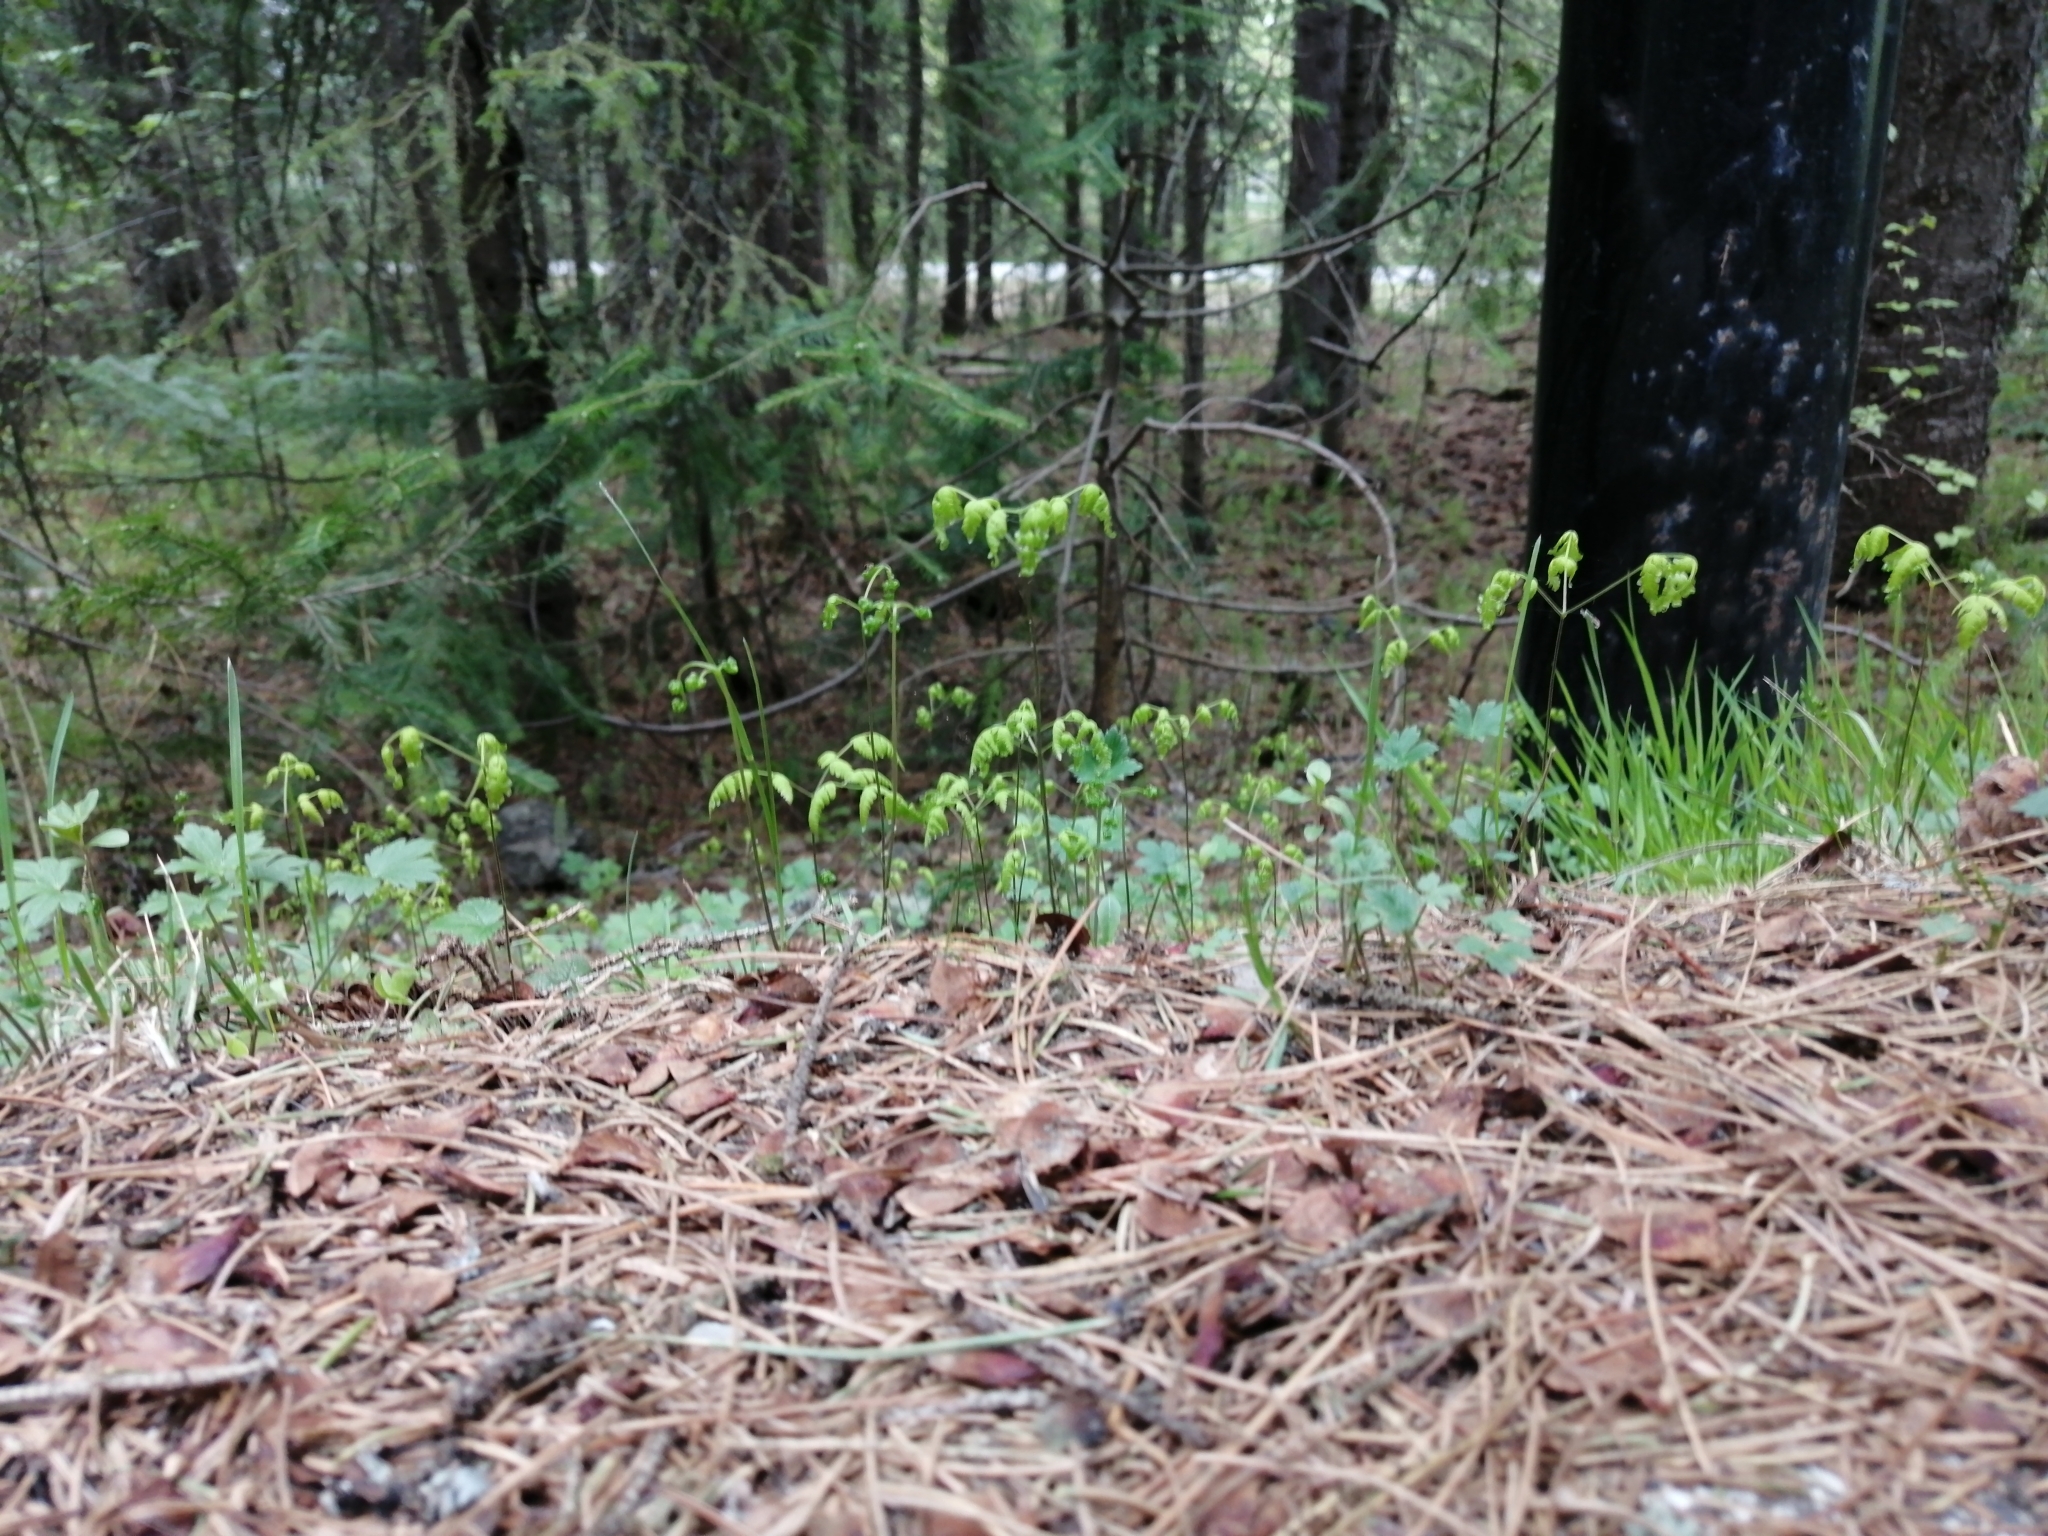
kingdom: Plantae
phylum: Tracheophyta
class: Polypodiopsida
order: Polypodiales
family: Cystopteridaceae
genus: Gymnocarpium
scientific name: Gymnocarpium dryopteris
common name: Oak fern
